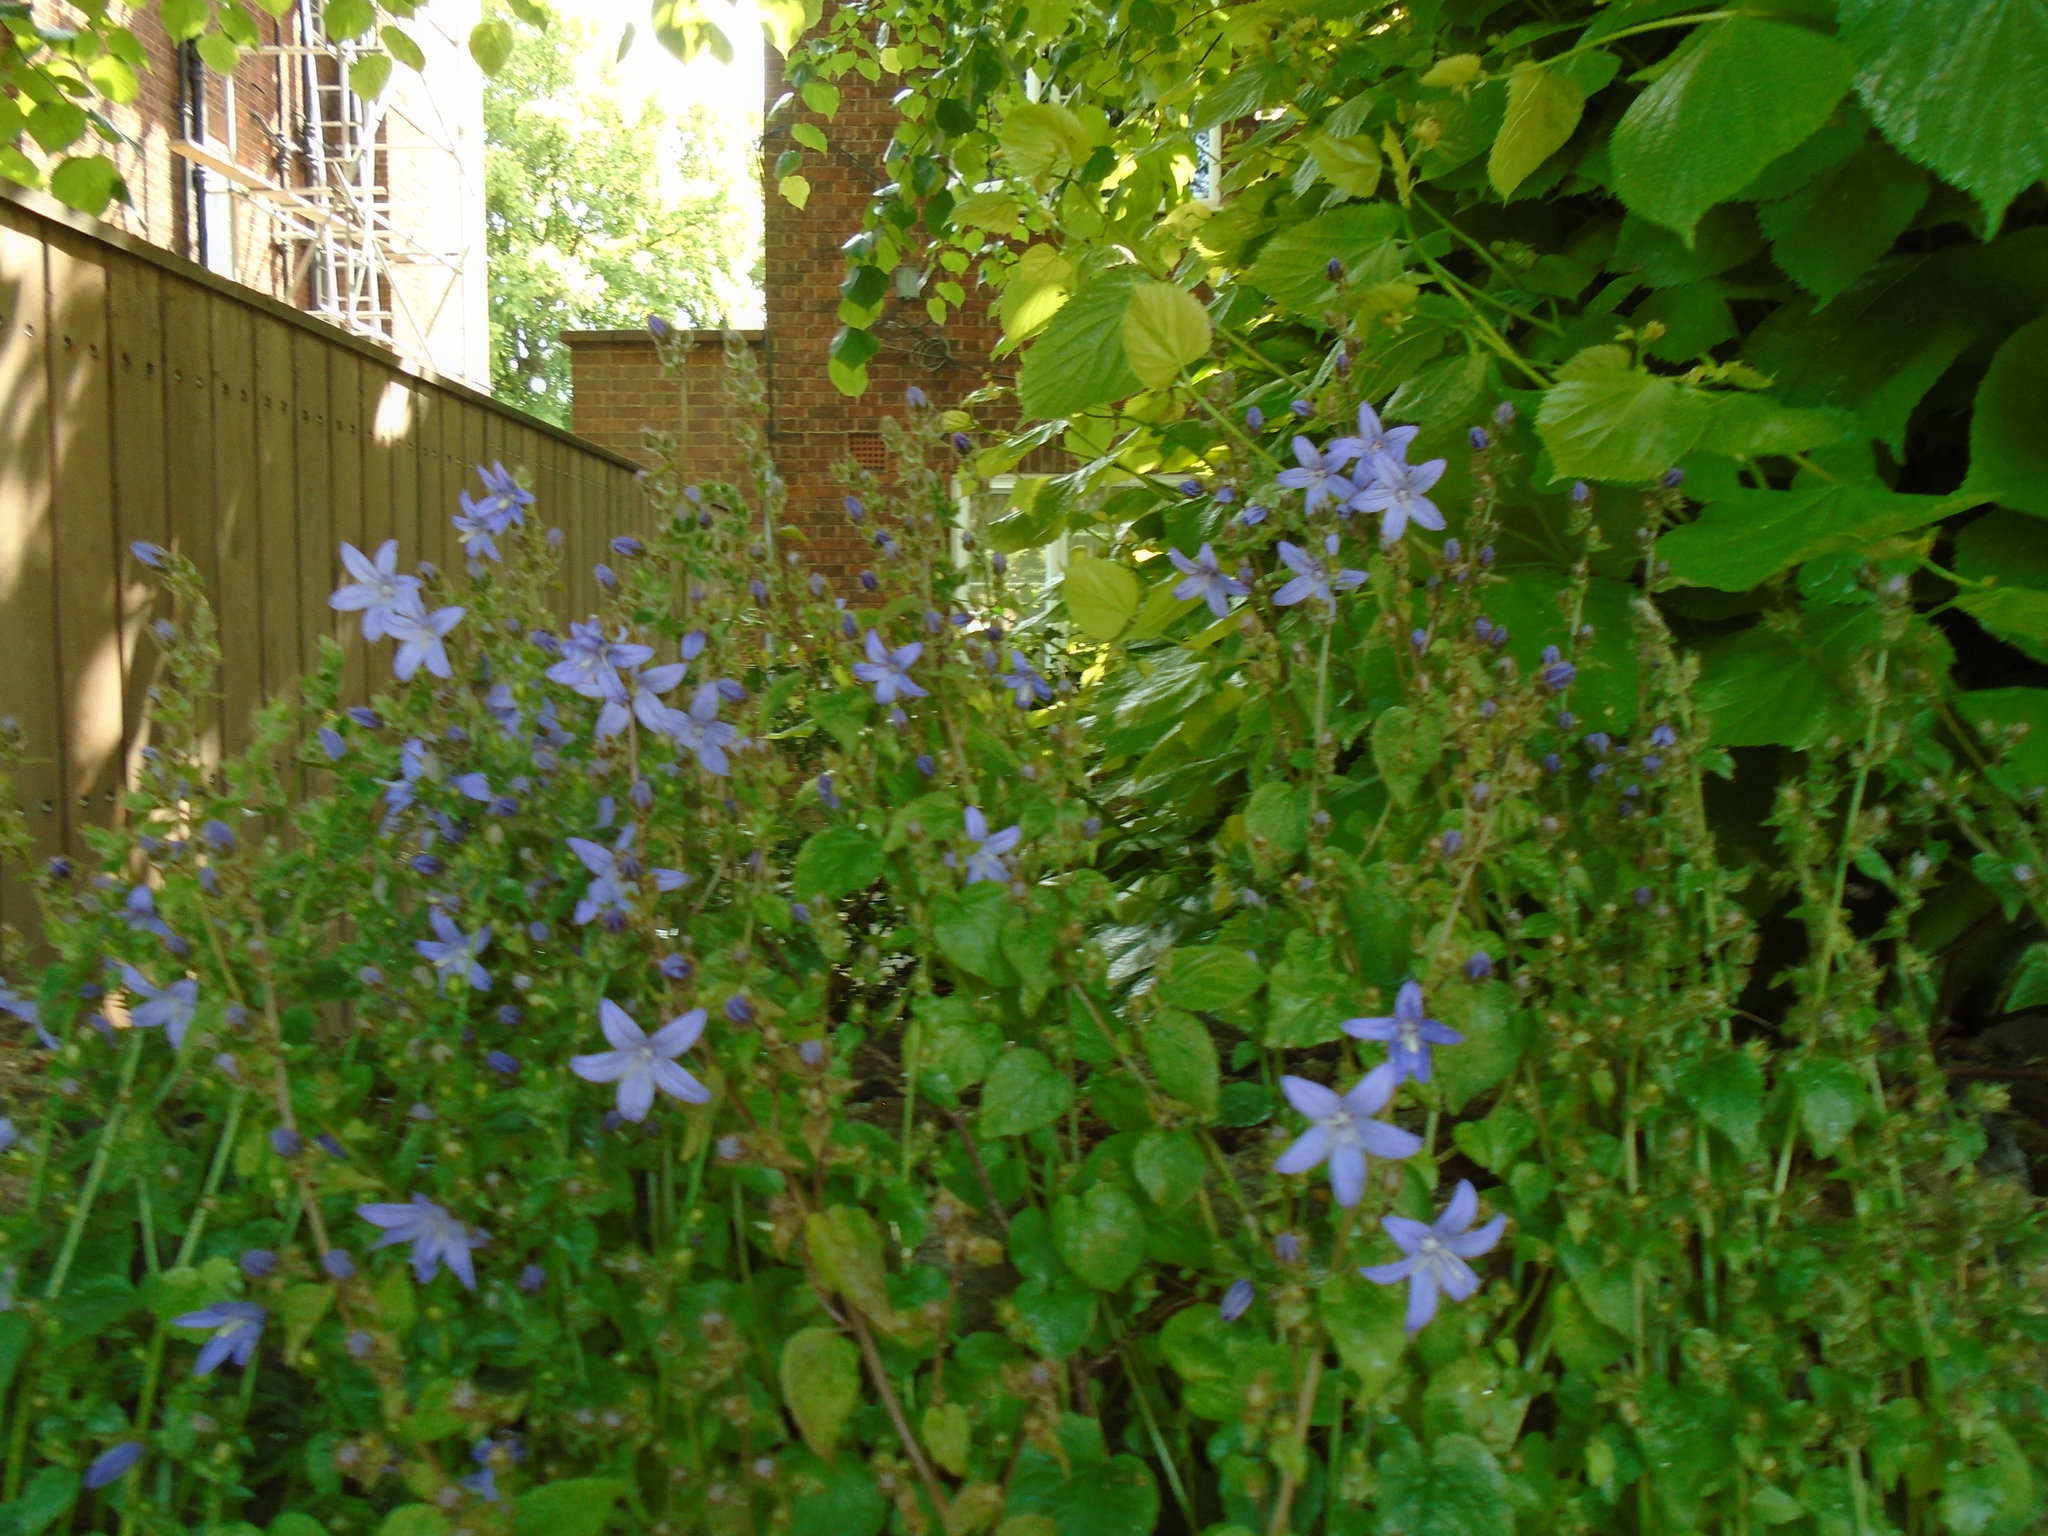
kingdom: Plantae
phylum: Tracheophyta
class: Magnoliopsida
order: Asterales
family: Campanulaceae
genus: Campanula
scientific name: Campanula poscharskyana
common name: Trailing bellflower
